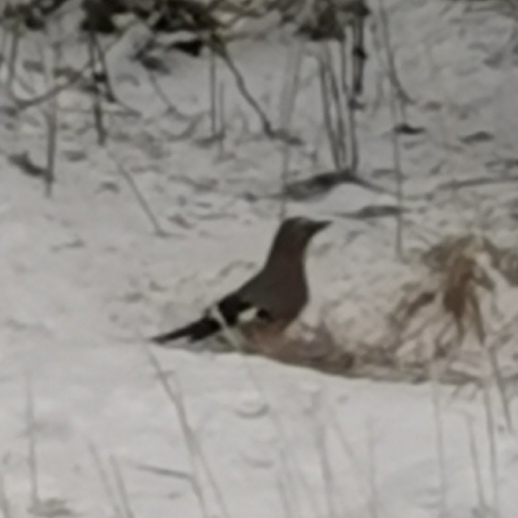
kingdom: Animalia
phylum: Chordata
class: Aves
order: Passeriformes
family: Corvidae
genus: Garrulus
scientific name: Garrulus glandarius
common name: Eurasian jay
